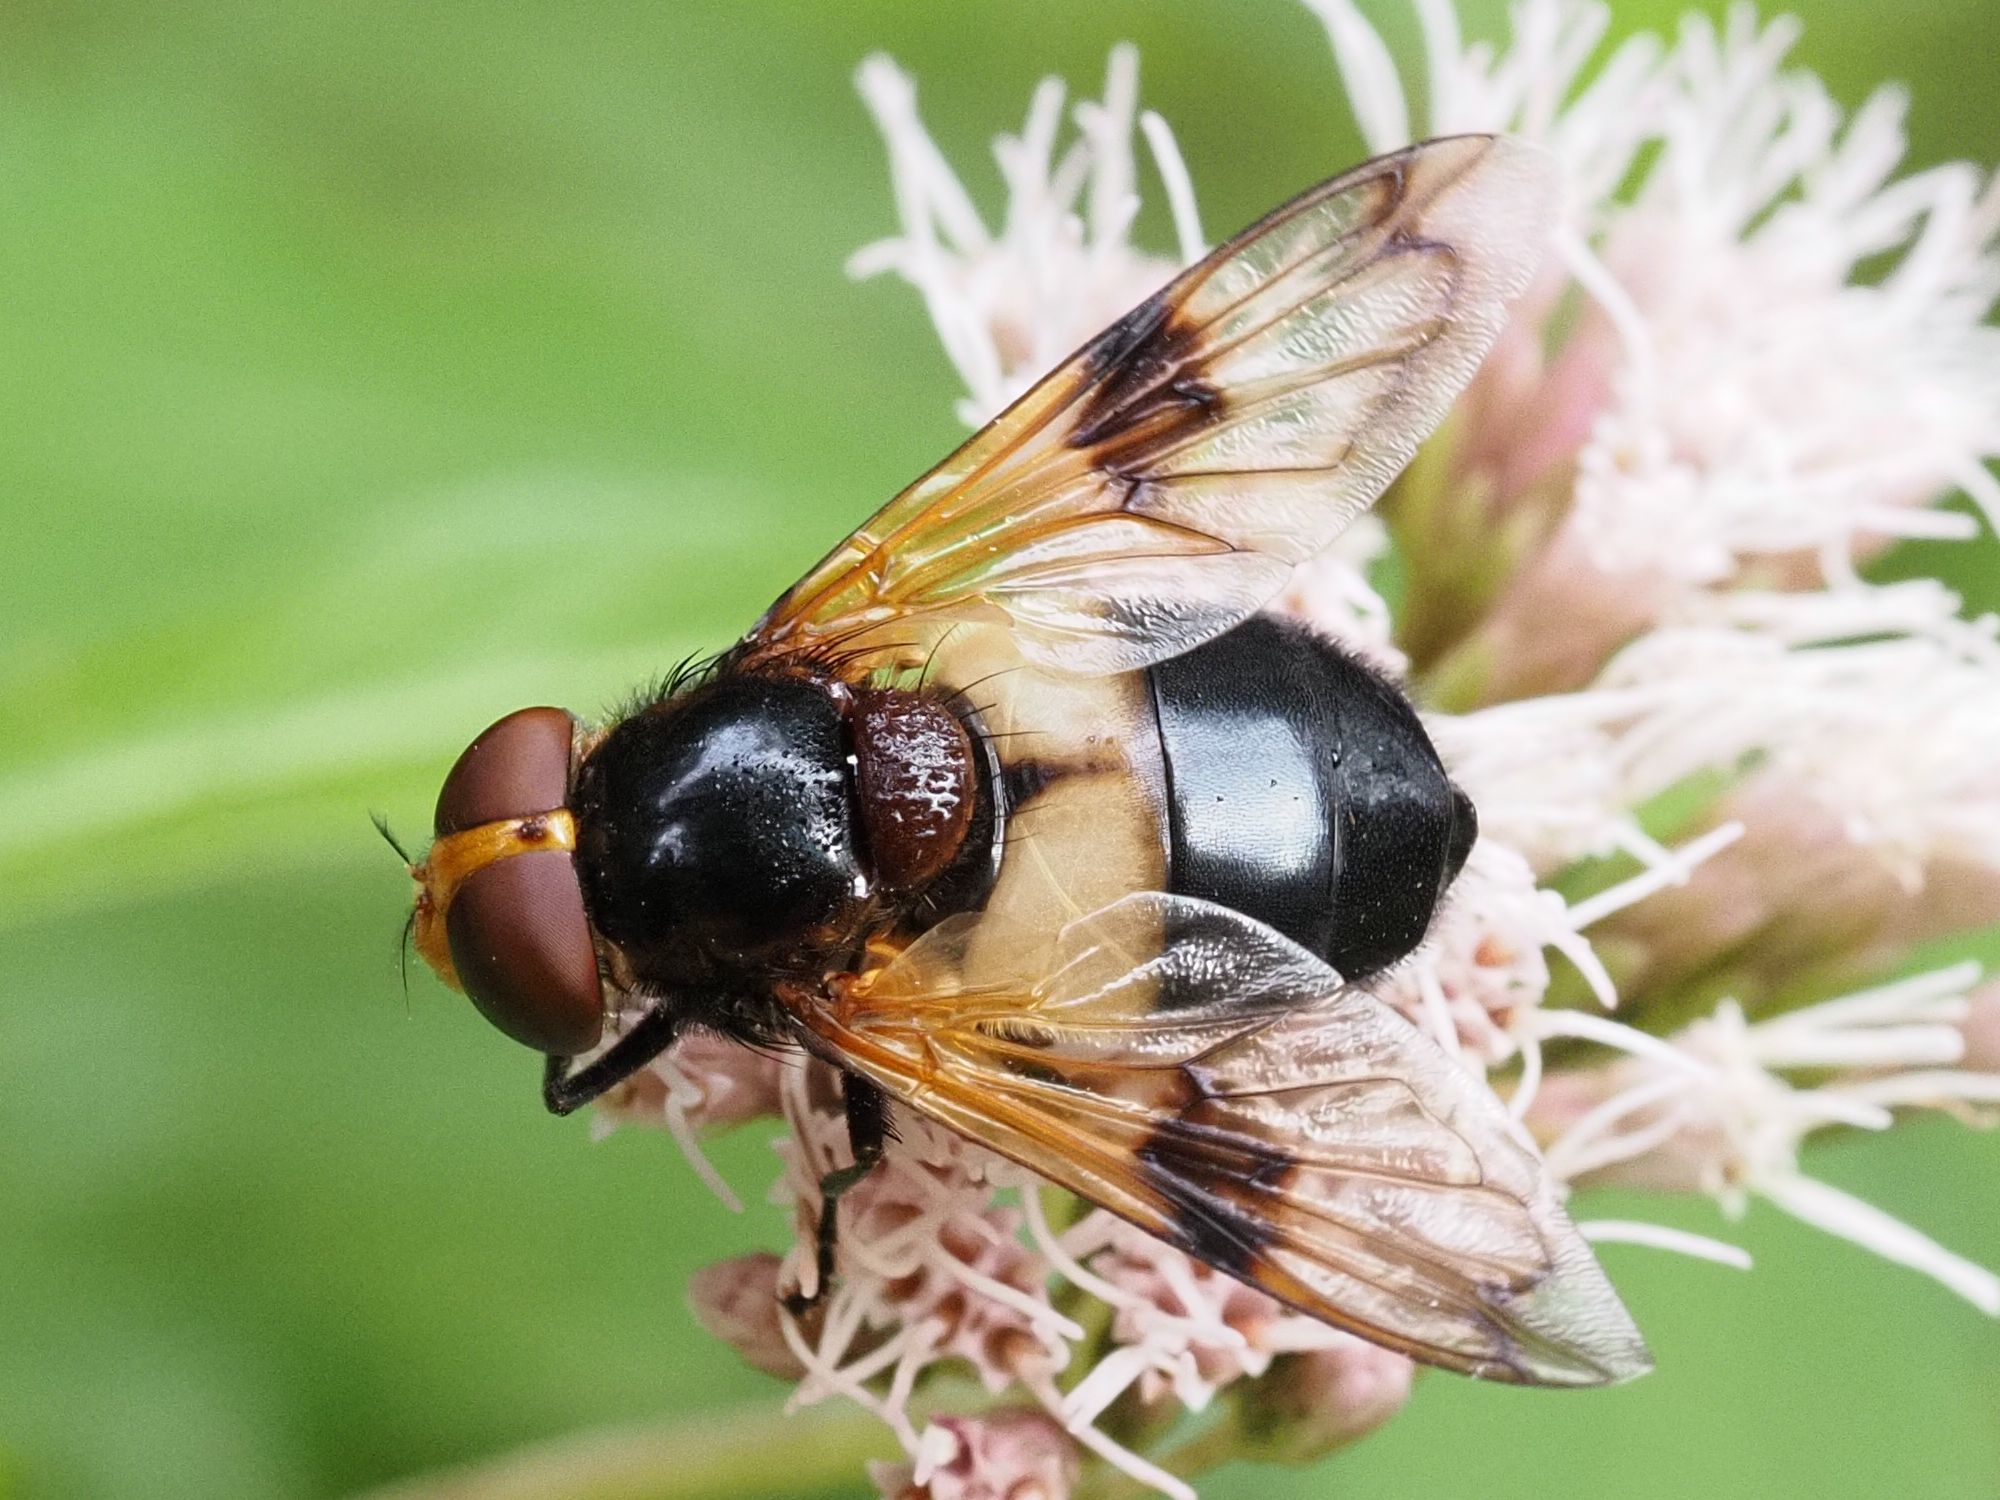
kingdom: Animalia
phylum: Arthropoda
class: Insecta
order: Diptera
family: Syrphidae
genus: Volucella
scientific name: Volucella pellucens
